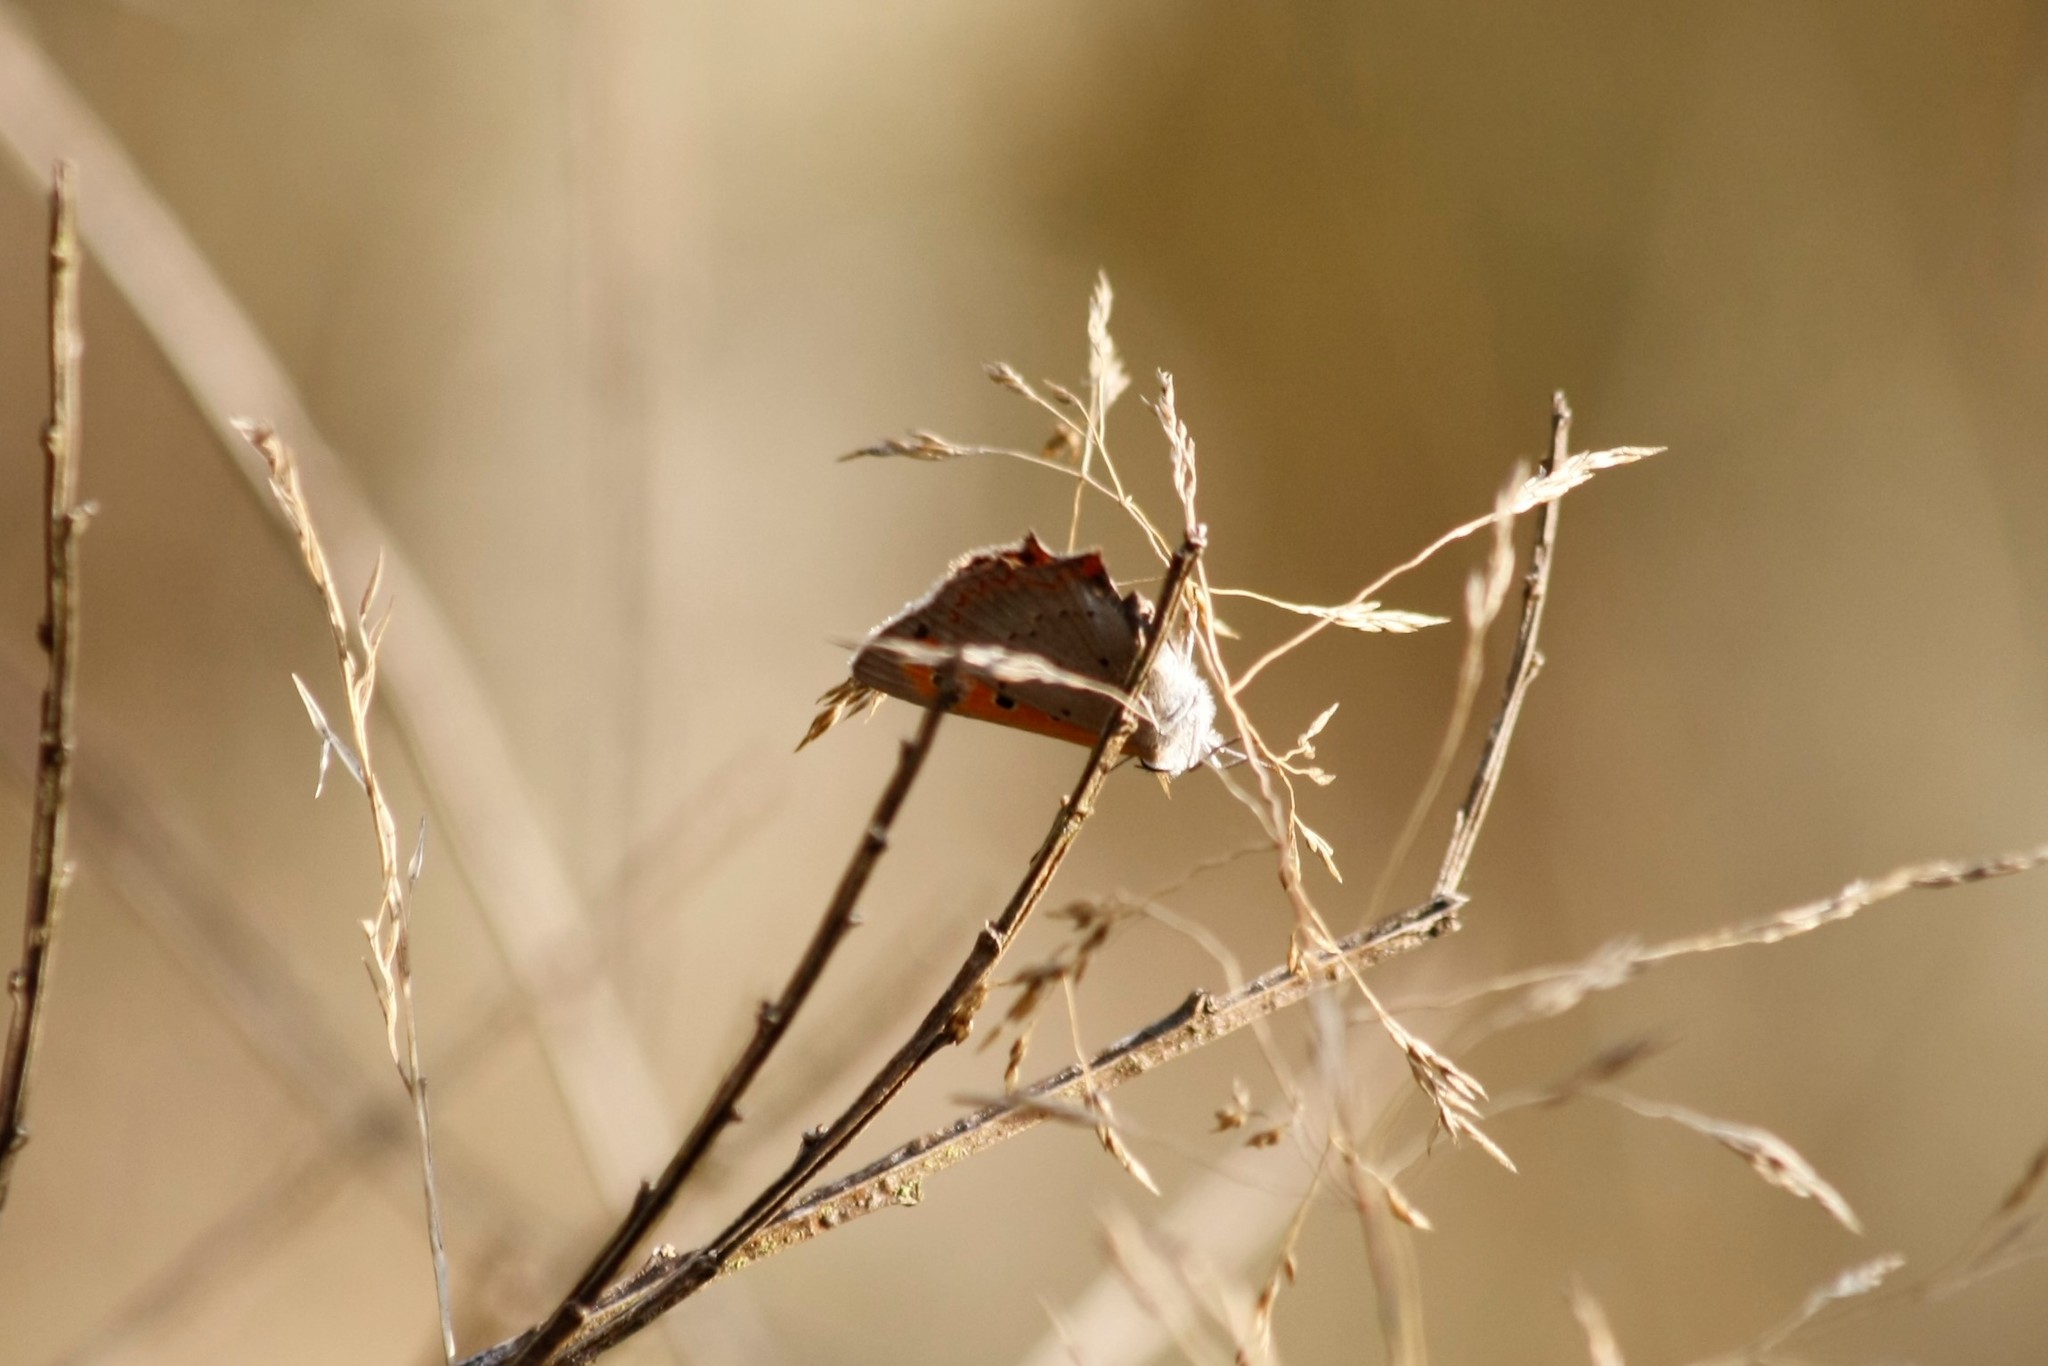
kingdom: Animalia
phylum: Arthropoda
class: Insecta
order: Lepidoptera
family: Lycaenidae
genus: Lycaena
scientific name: Lycaena phlaeas
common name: Small copper
